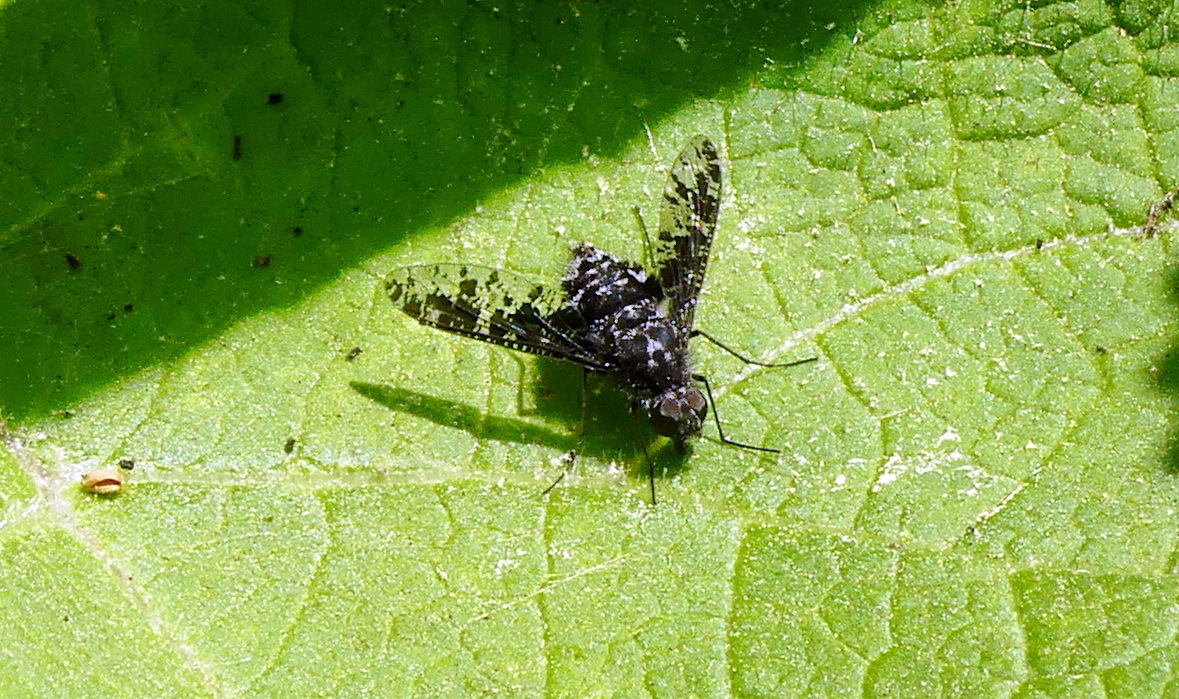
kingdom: Animalia
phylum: Arthropoda
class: Insecta
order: Diptera
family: Bombyliidae
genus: Anthrax
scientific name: Anthrax irroratus
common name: Spotted bee fly
